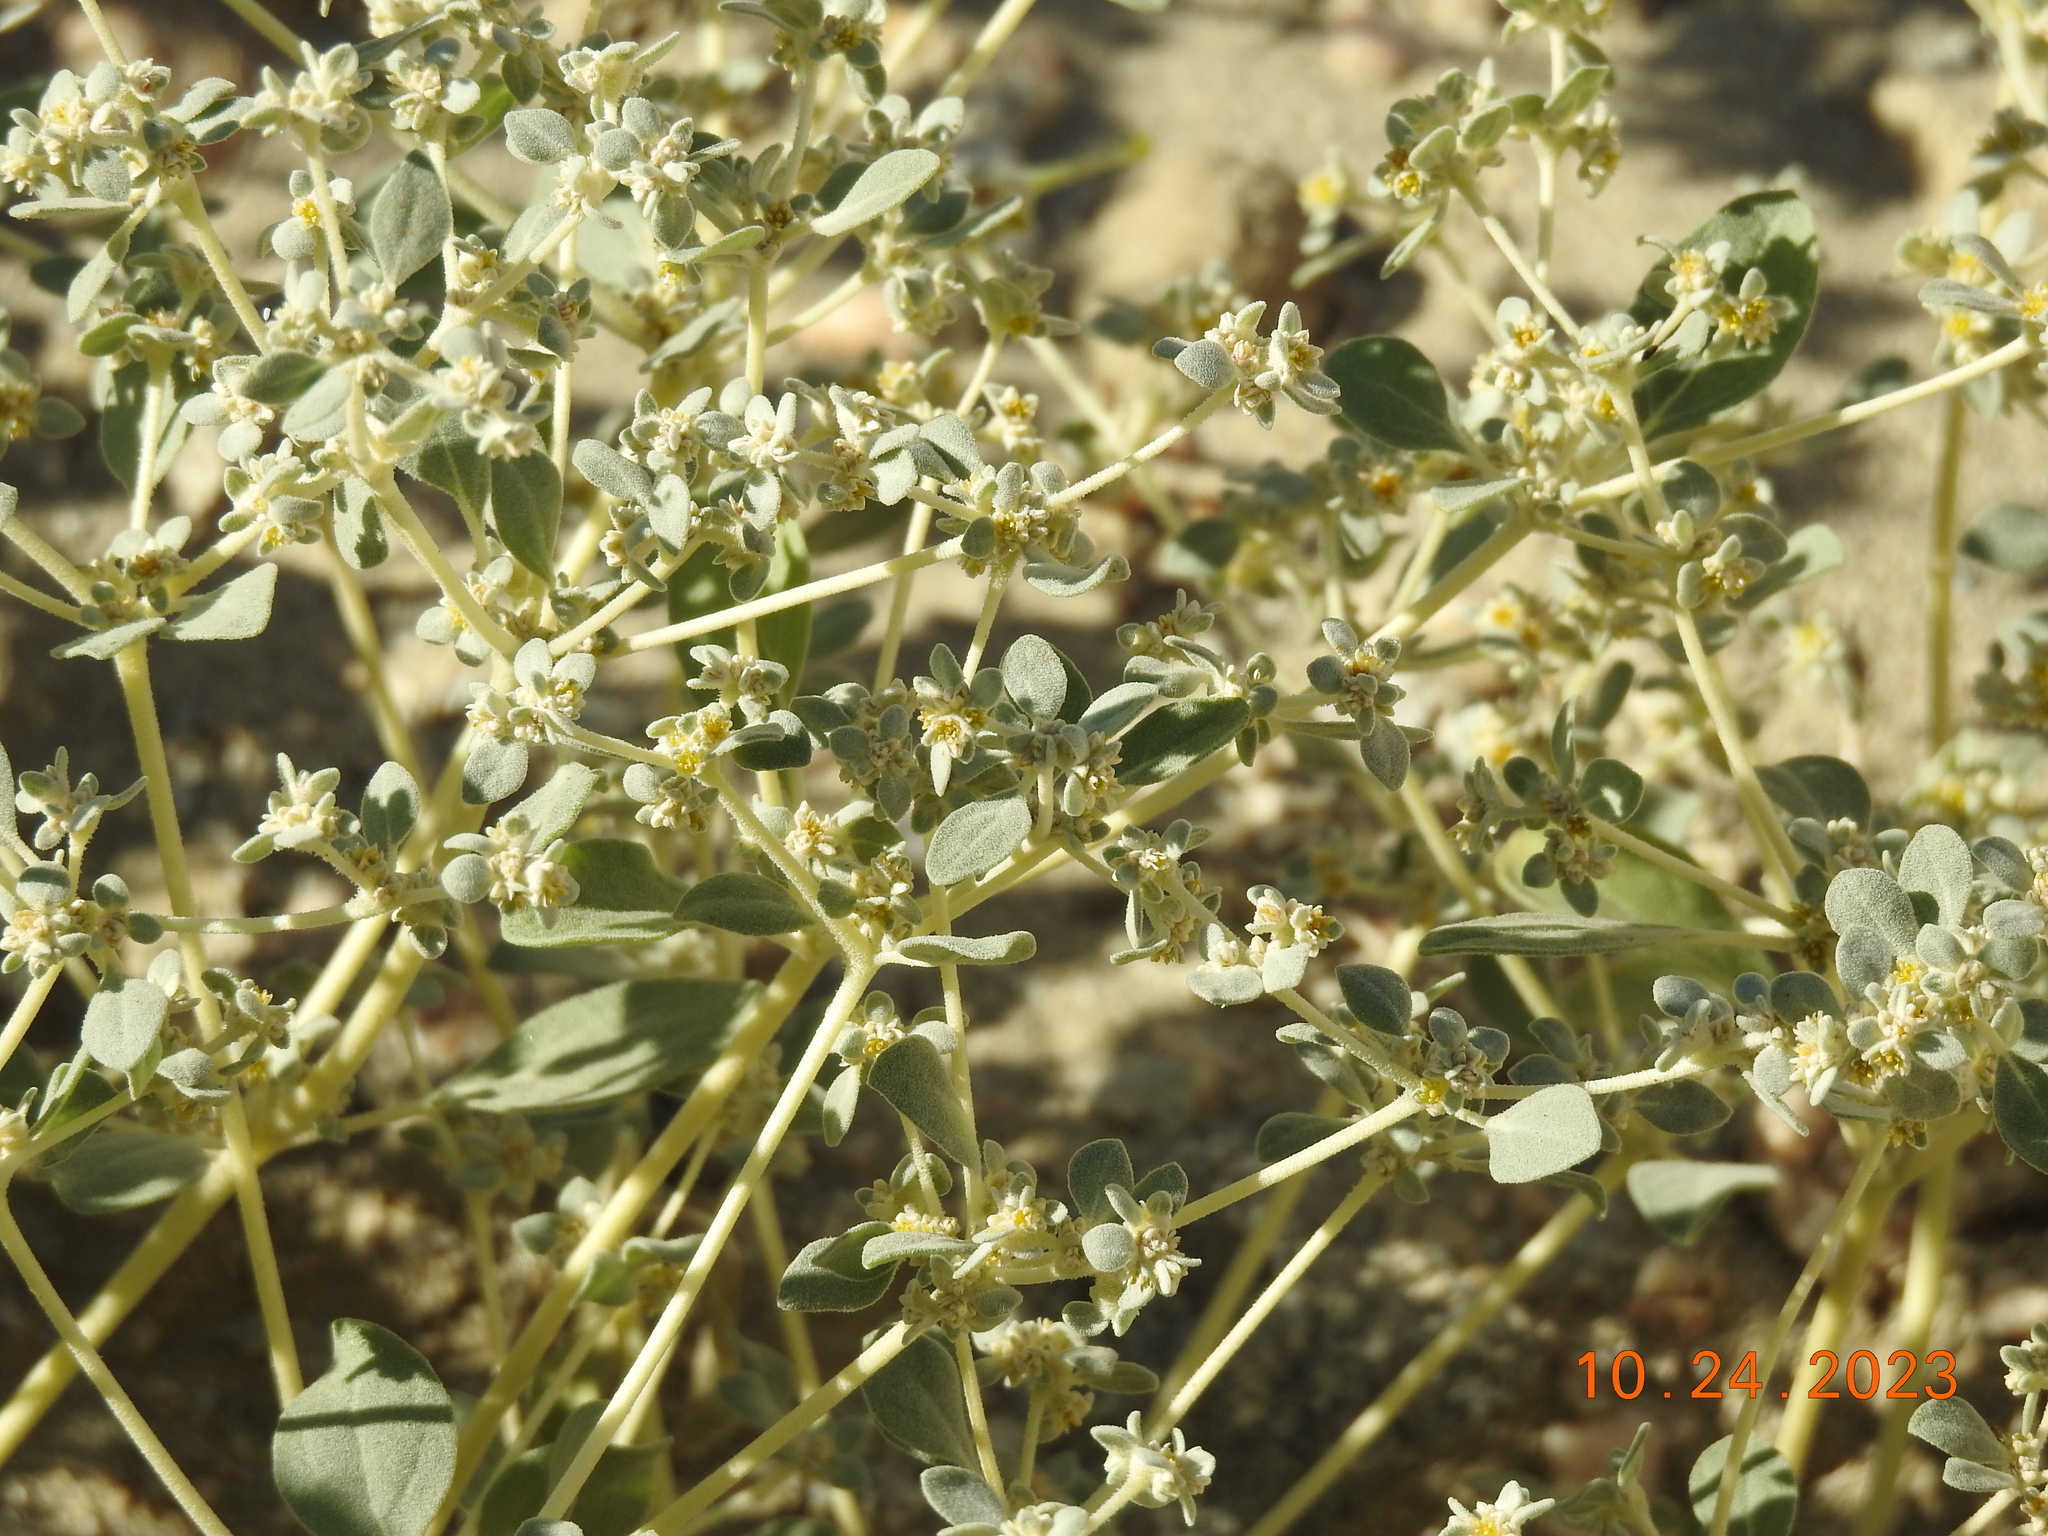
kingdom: Plantae
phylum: Tracheophyta
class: Magnoliopsida
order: Caryophyllales
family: Amaranthaceae
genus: Tidestromia
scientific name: Tidestromia suffruticosa
